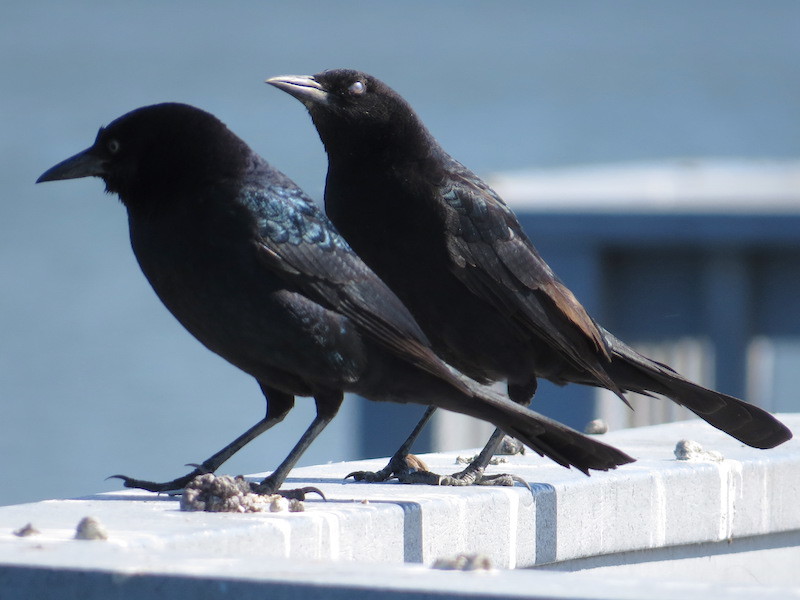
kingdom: Animalia
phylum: Chordata
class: Aves
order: Passeriformes
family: Icteridae
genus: Quiscalus
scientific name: Quiscalus major
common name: Boat-tailed grackle
